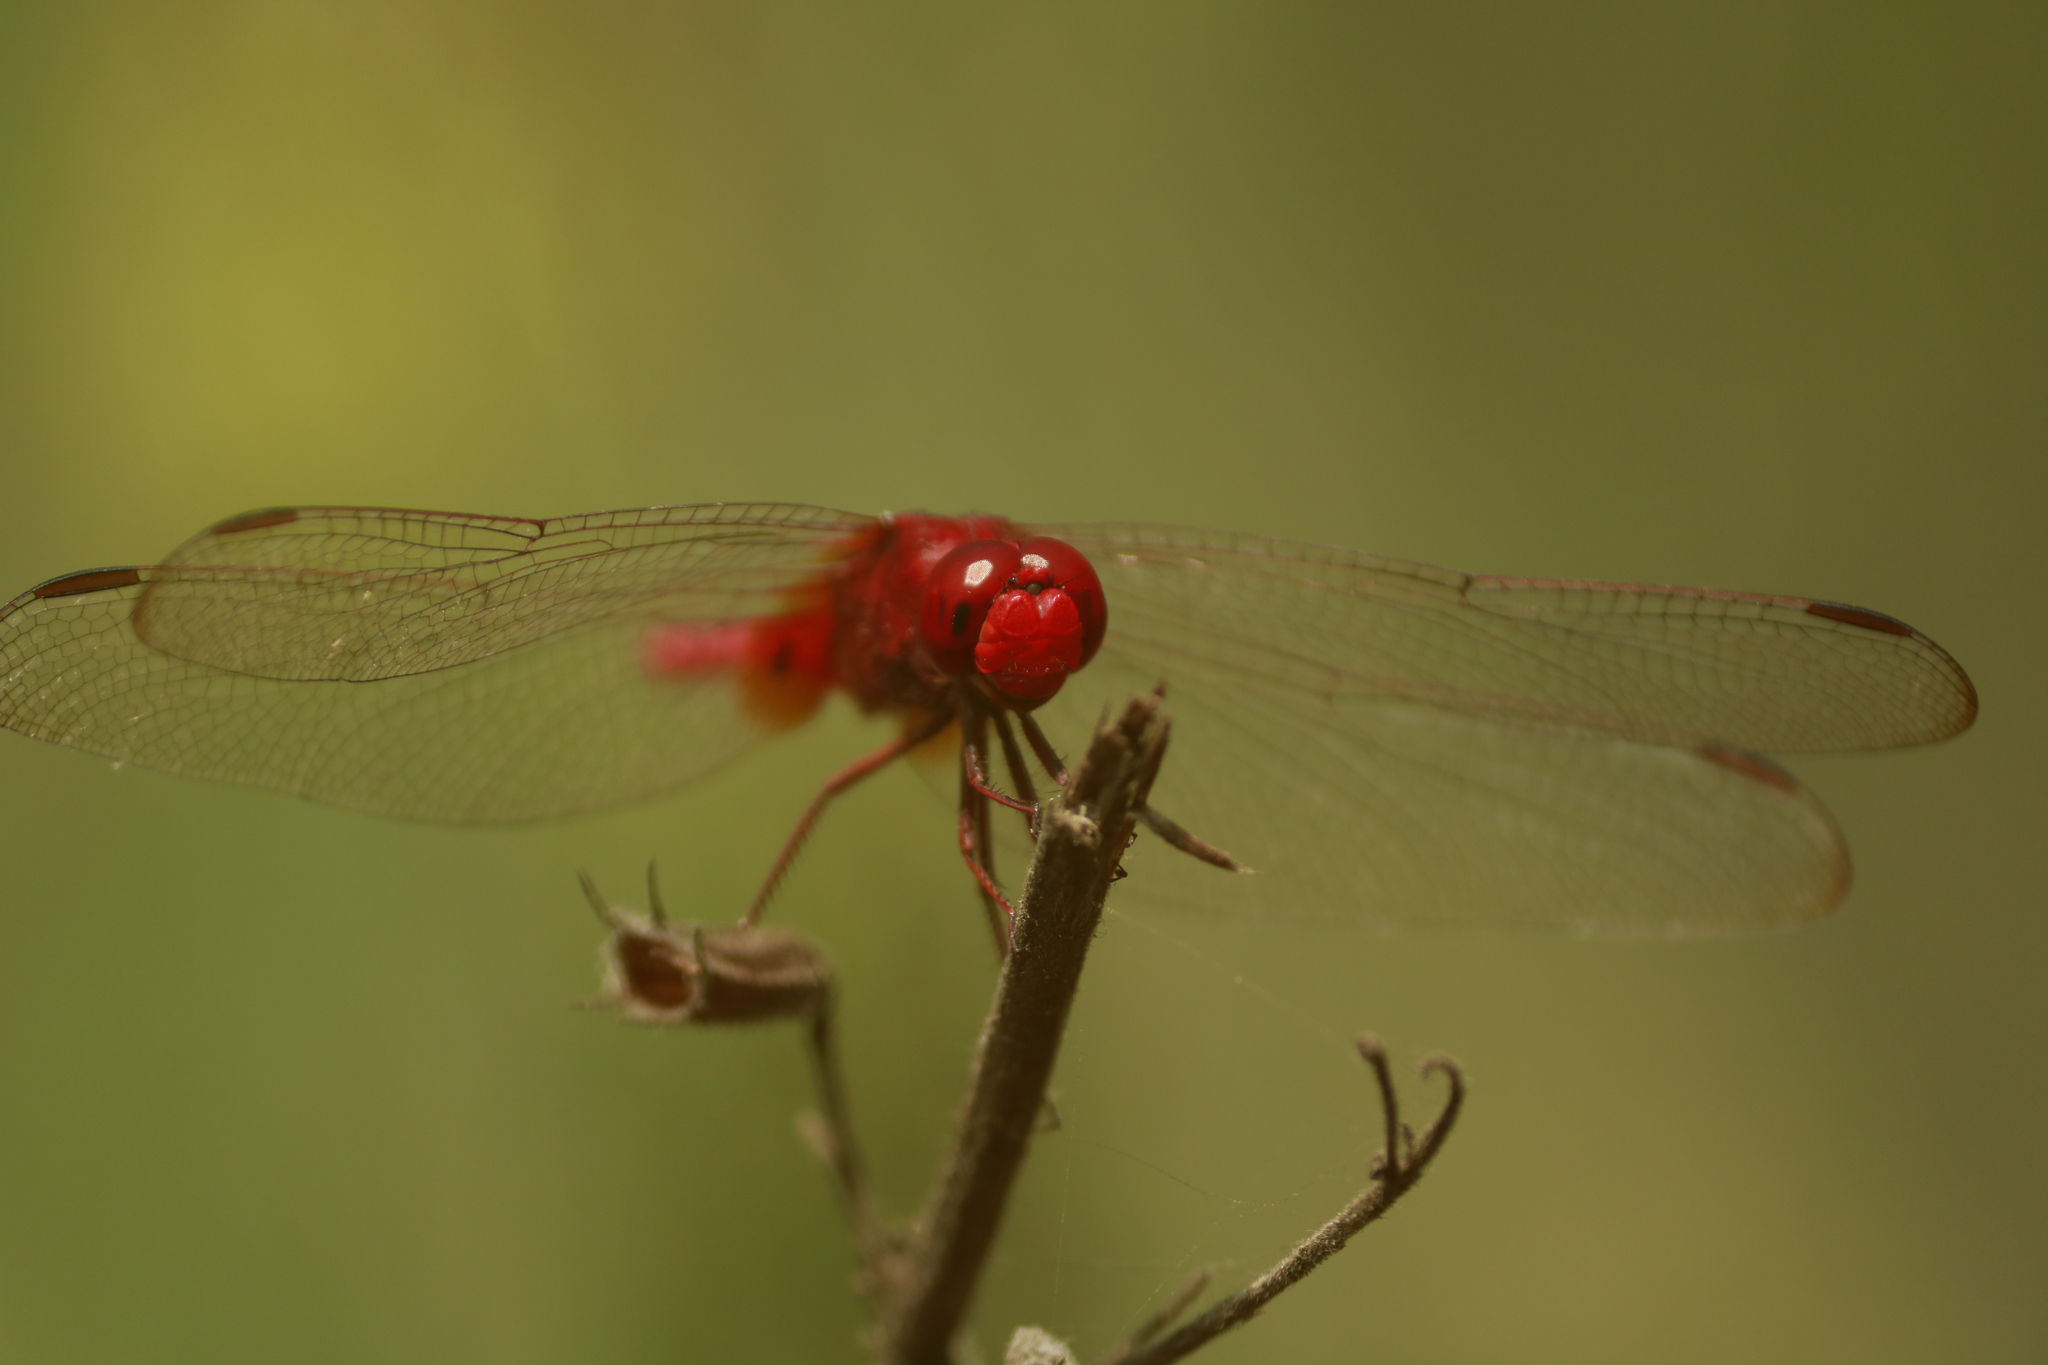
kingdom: Animalia
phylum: Arthropoda
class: Insecta
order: Odonata
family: Libellulidae
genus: Crocothemis
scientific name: Crocothemis servilia
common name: Scarlet skimmer
